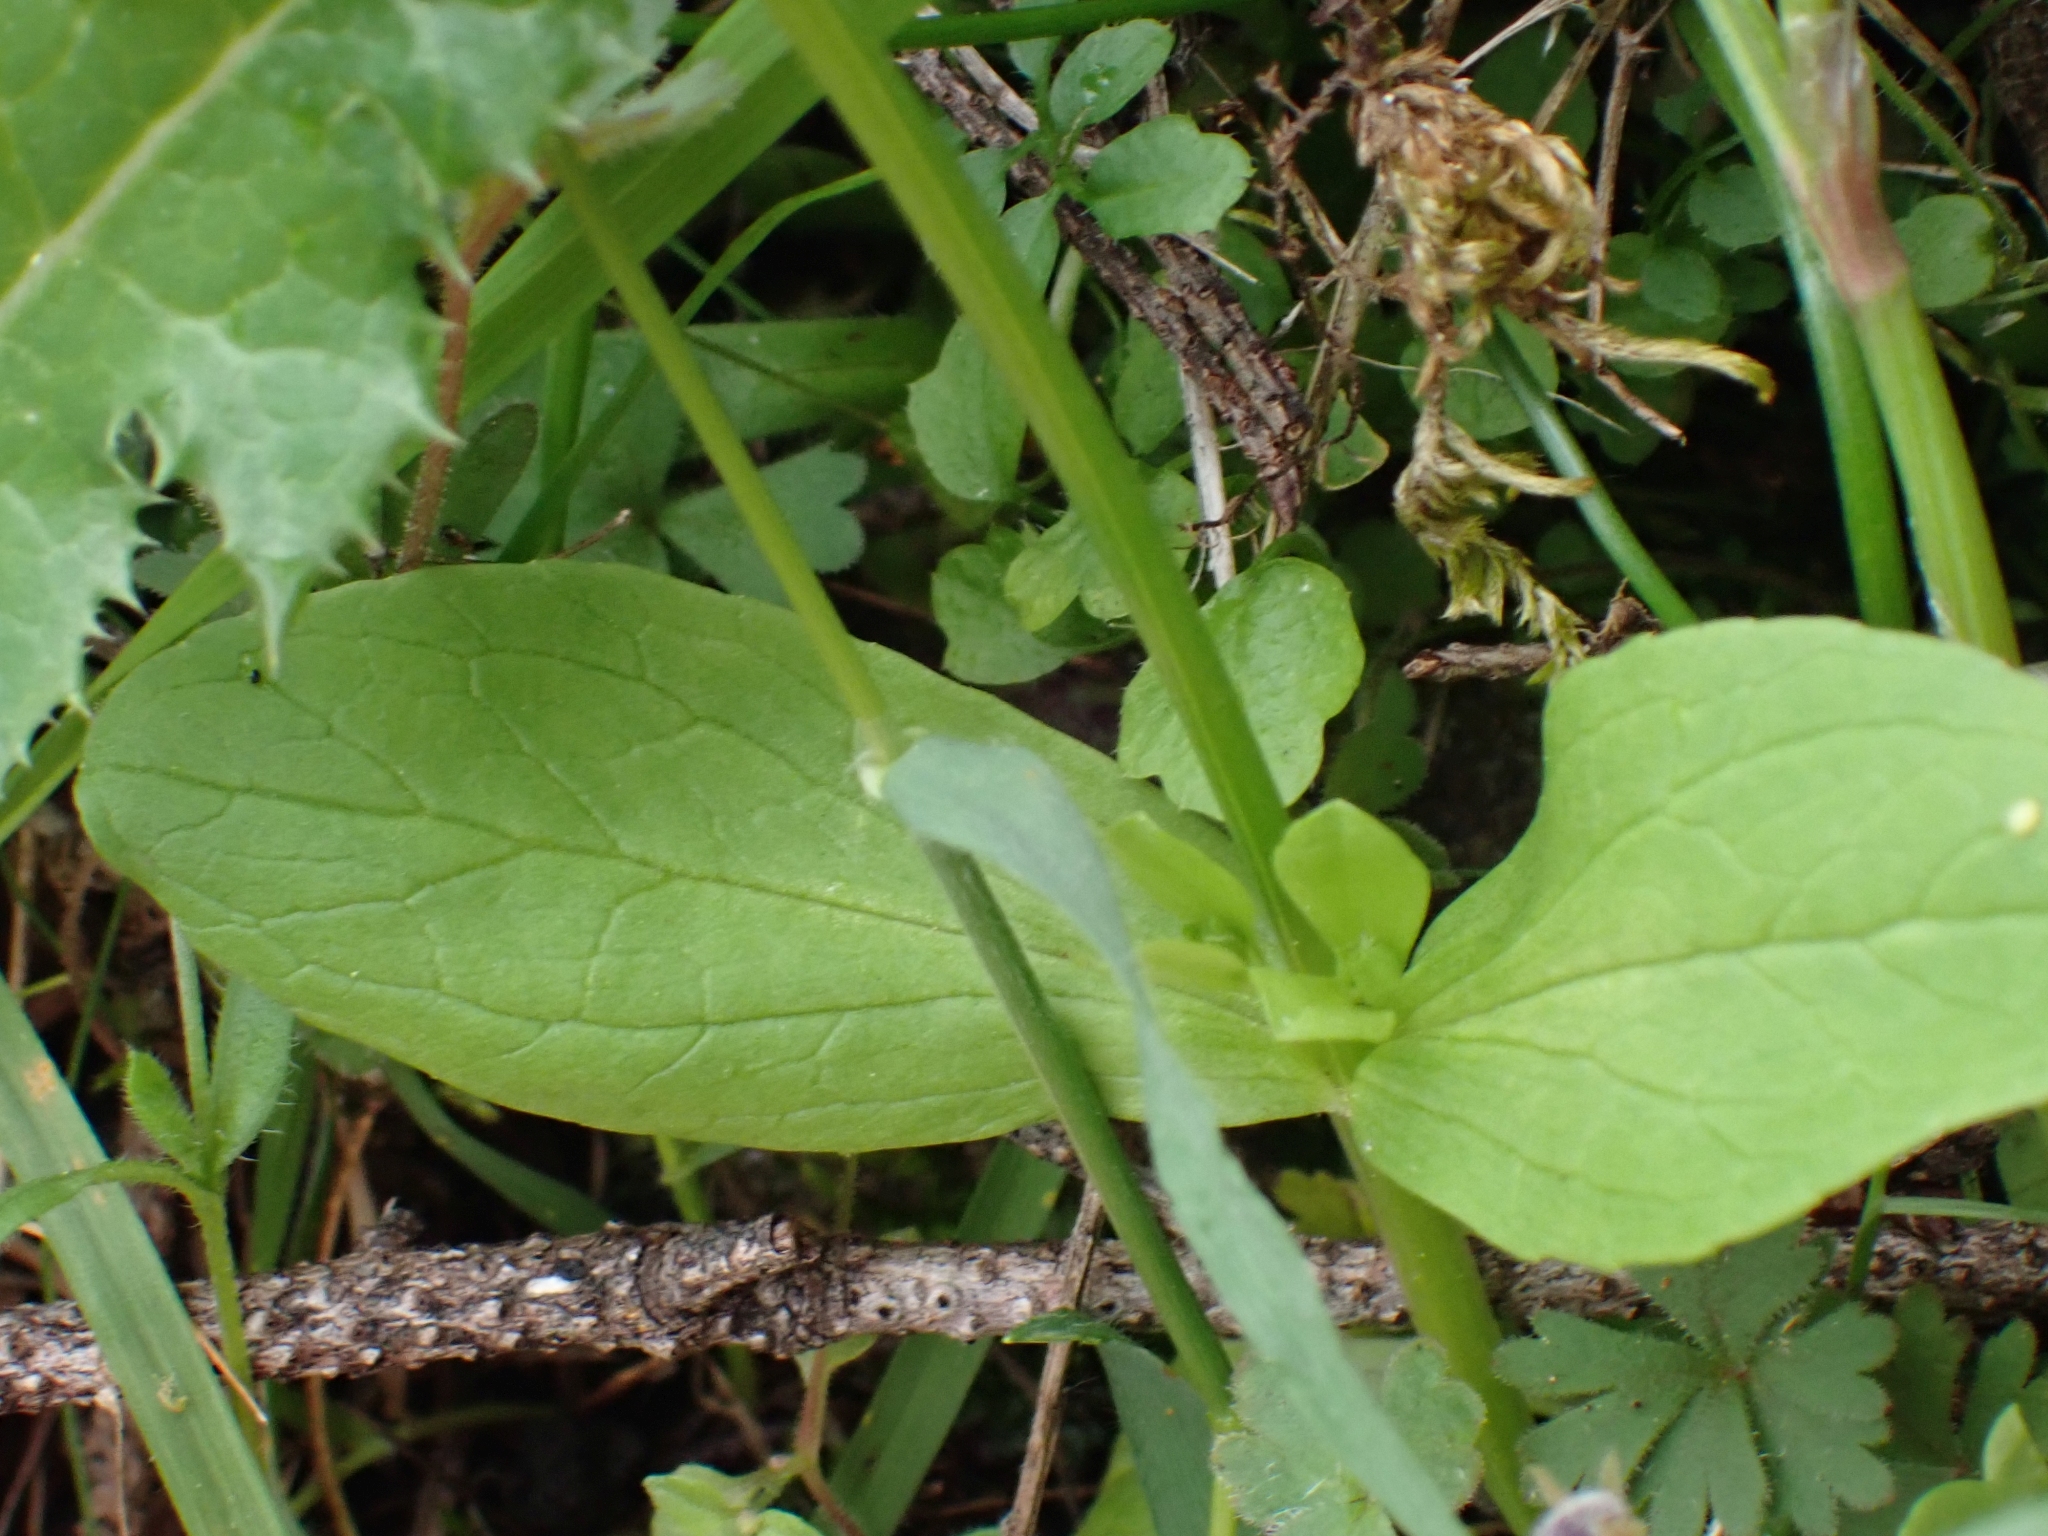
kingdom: Plantae
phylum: Tracheophyta
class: Magnoliopsida
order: Dipsacales
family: Caprifoliaceae
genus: Plectritis
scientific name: Plectritis congesta
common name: Pink plectritis
